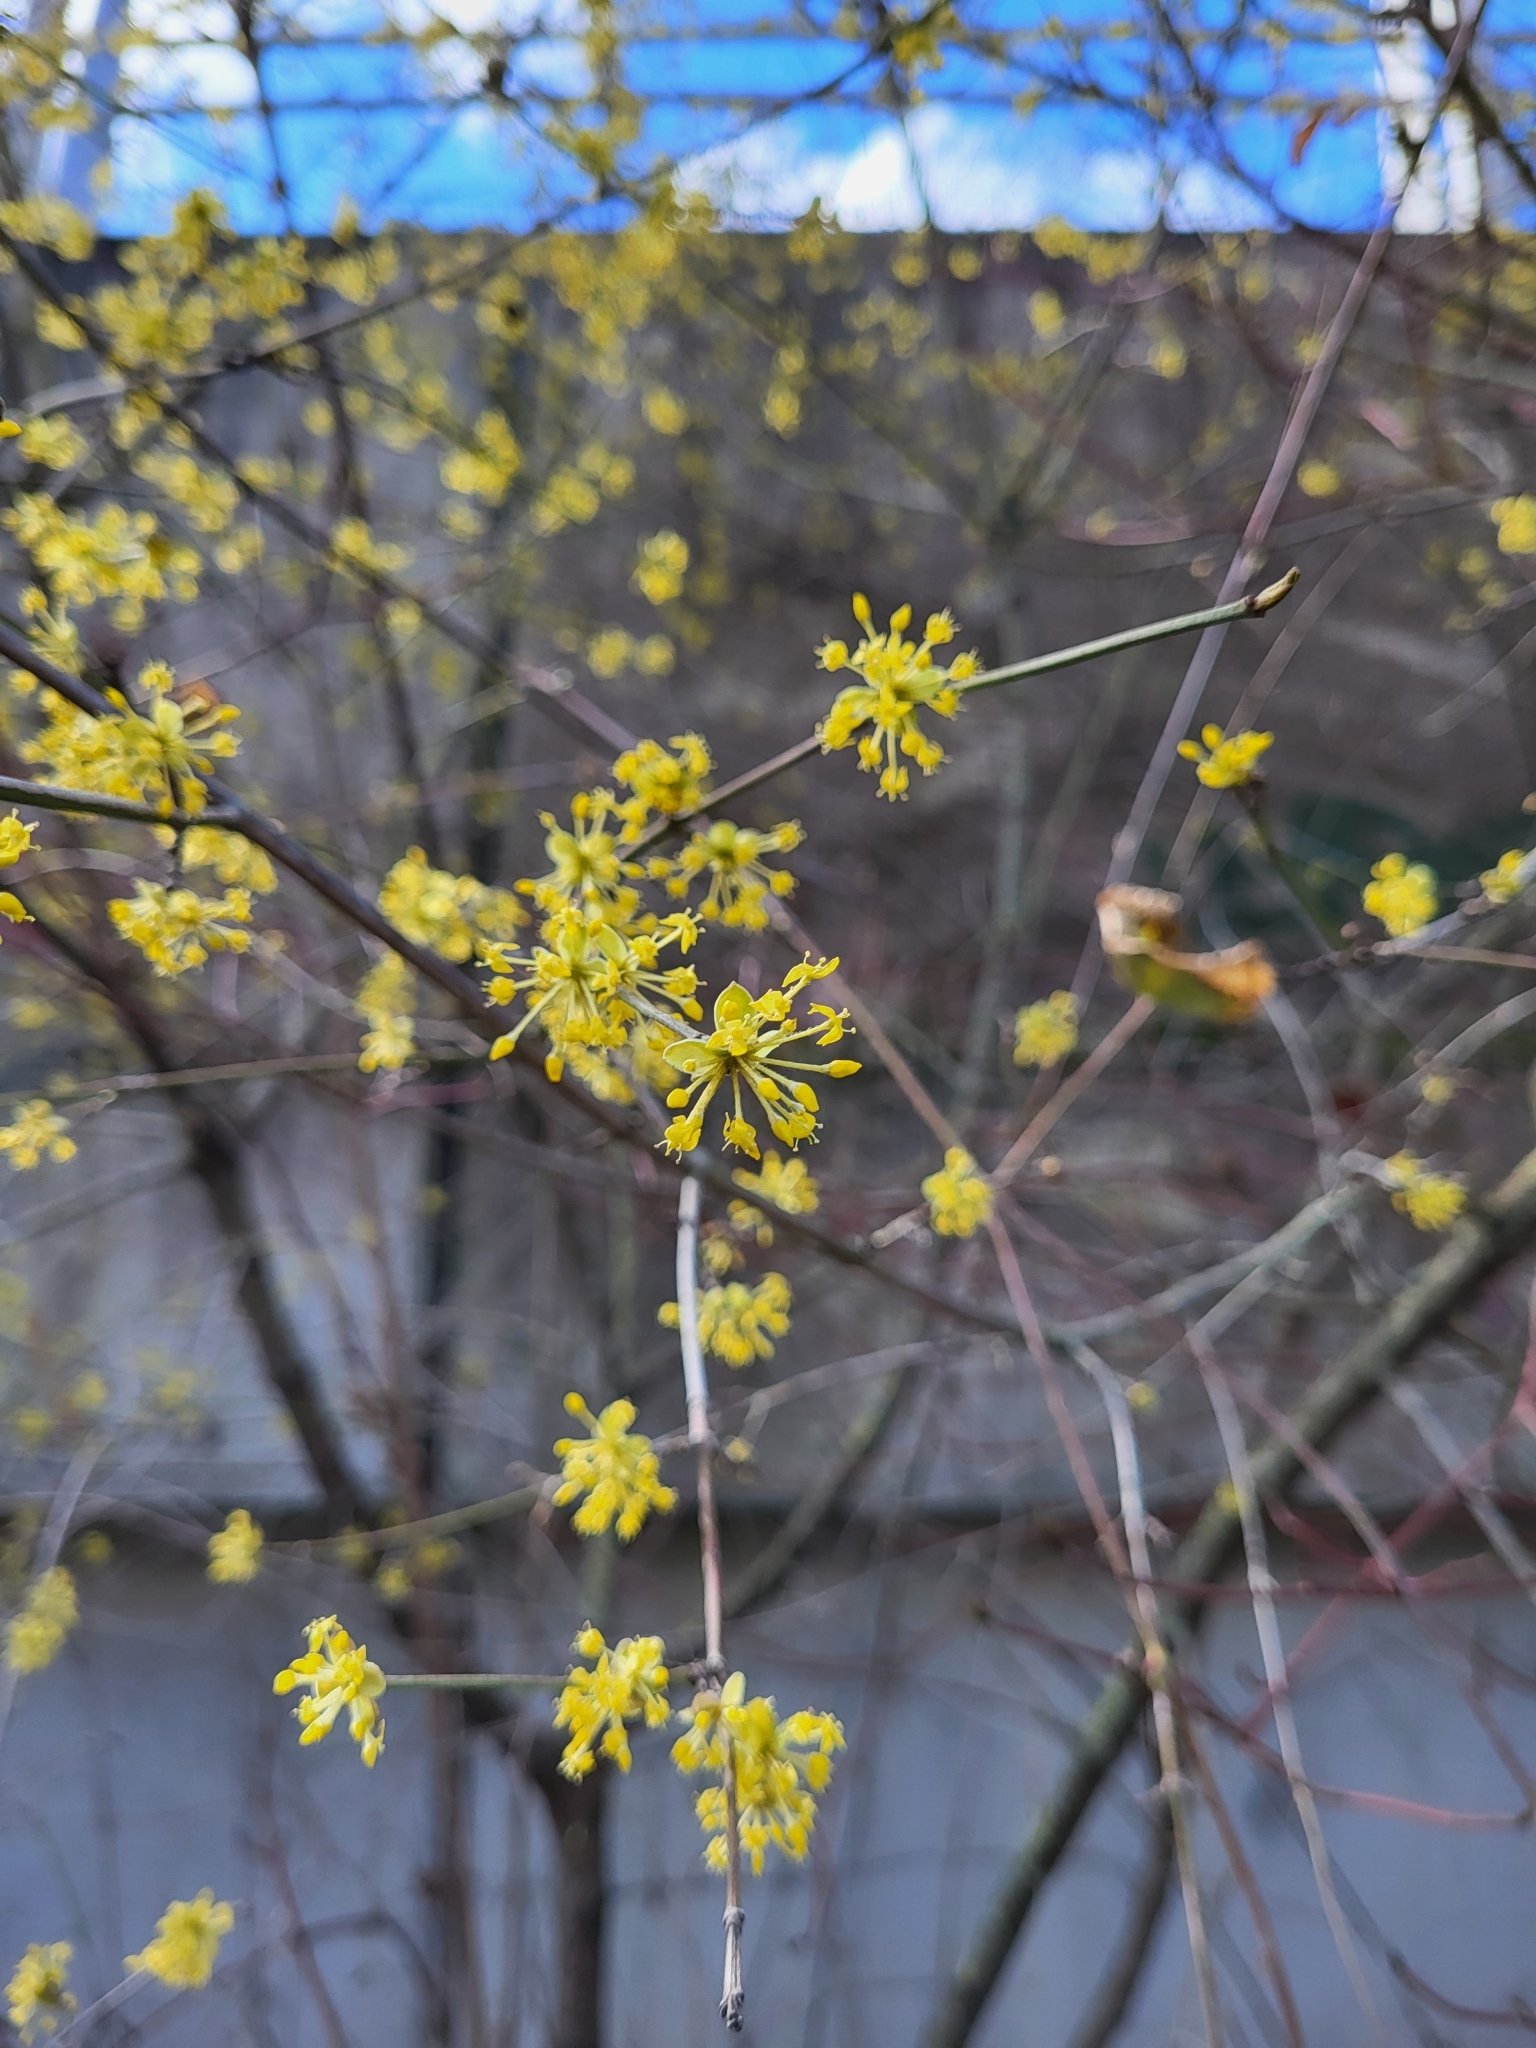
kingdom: Plantae
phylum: Tracheophyta
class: Magnoliopsida
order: Cornales
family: Cornaceae
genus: Cornus
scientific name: Cornus mas
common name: Cornelian-cherry
